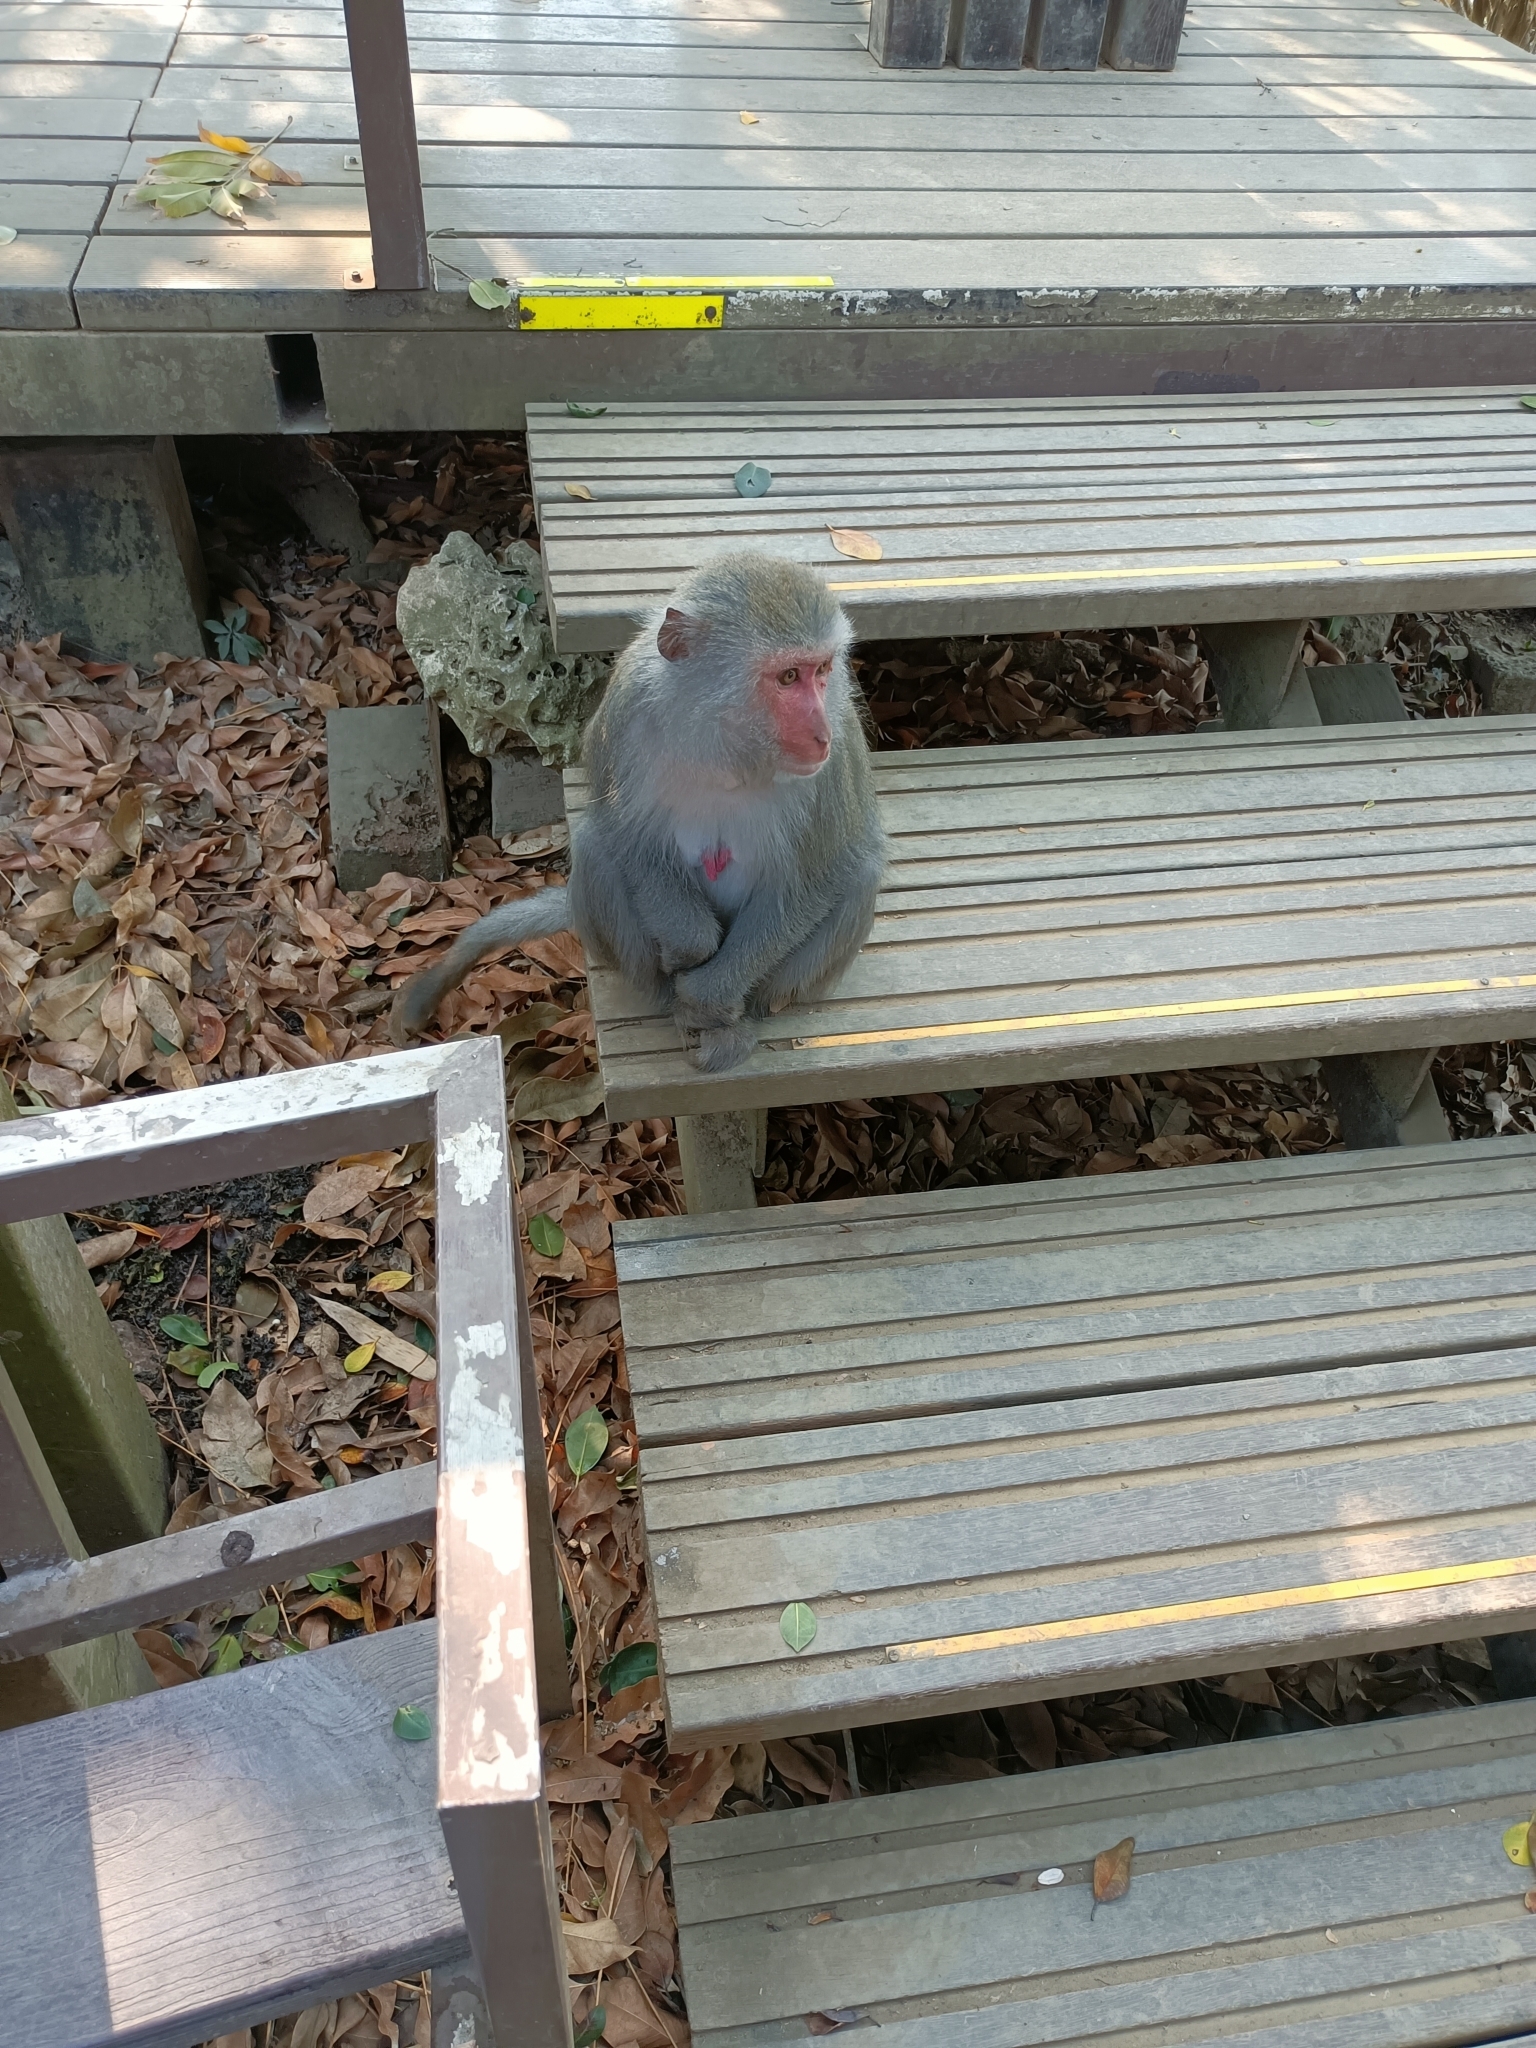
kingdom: Animalia
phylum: Chordata
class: Mammalia
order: Primates
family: Cercopithecidae
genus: Macaca
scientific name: Macaca cyclopis
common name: Formosan rock macaque
